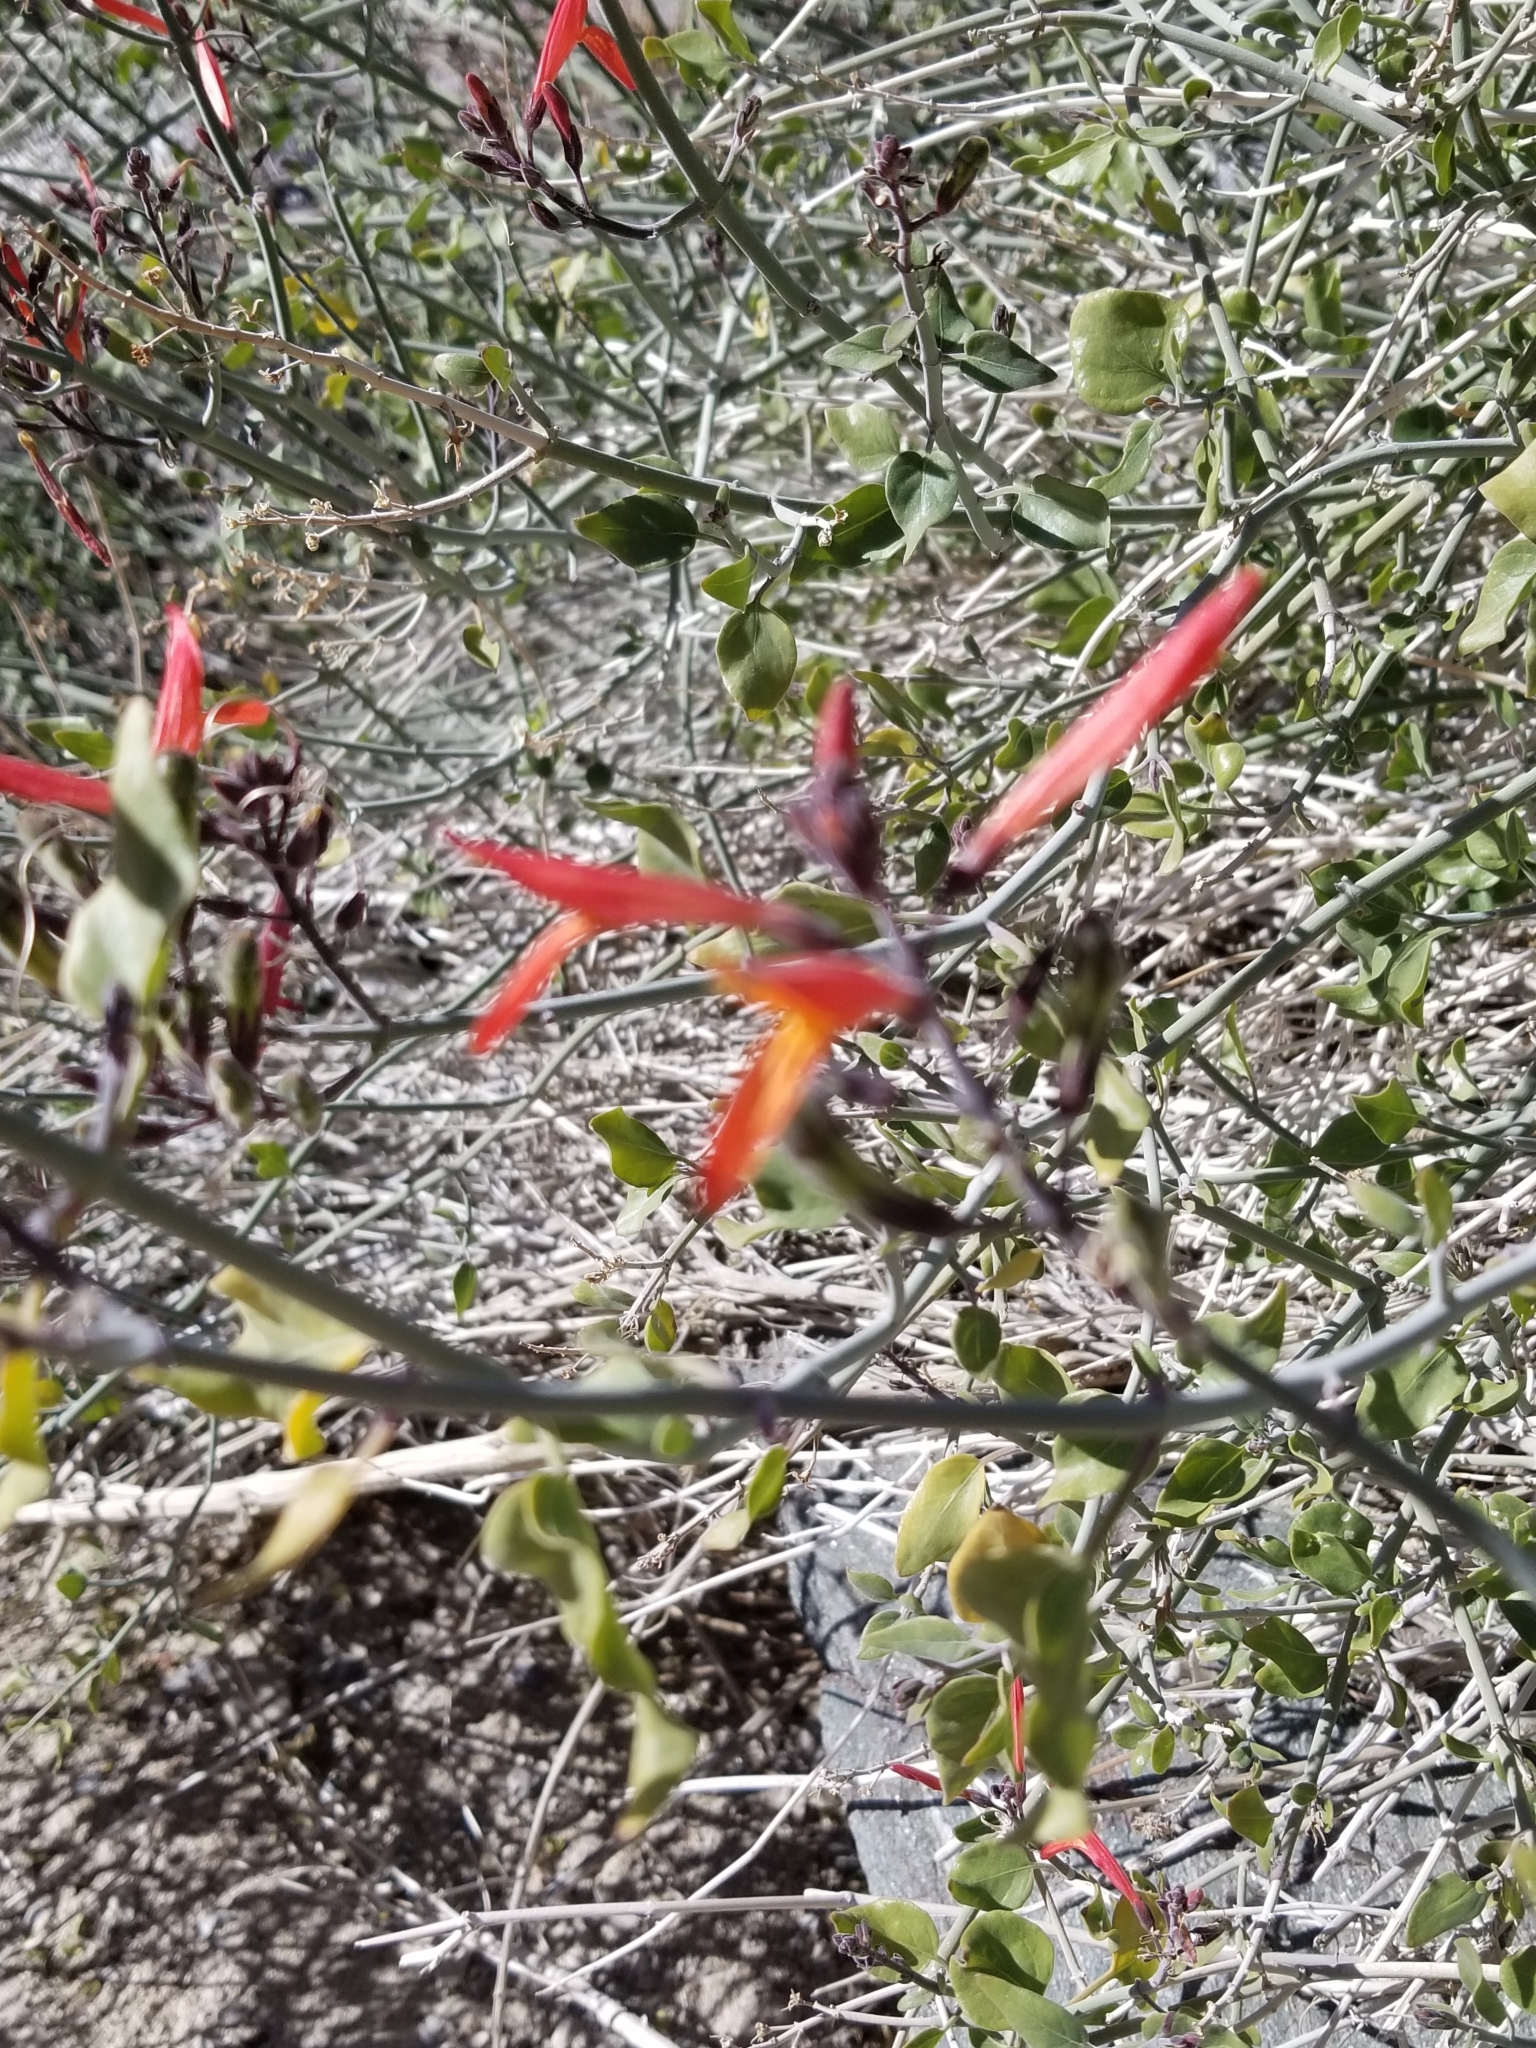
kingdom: Plantae
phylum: Tracheophyta
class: Magnoliopsida
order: Lamiales
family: Acanthaceae
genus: Justicia
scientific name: Justicia californica
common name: Chuparosa-honeysuckle
